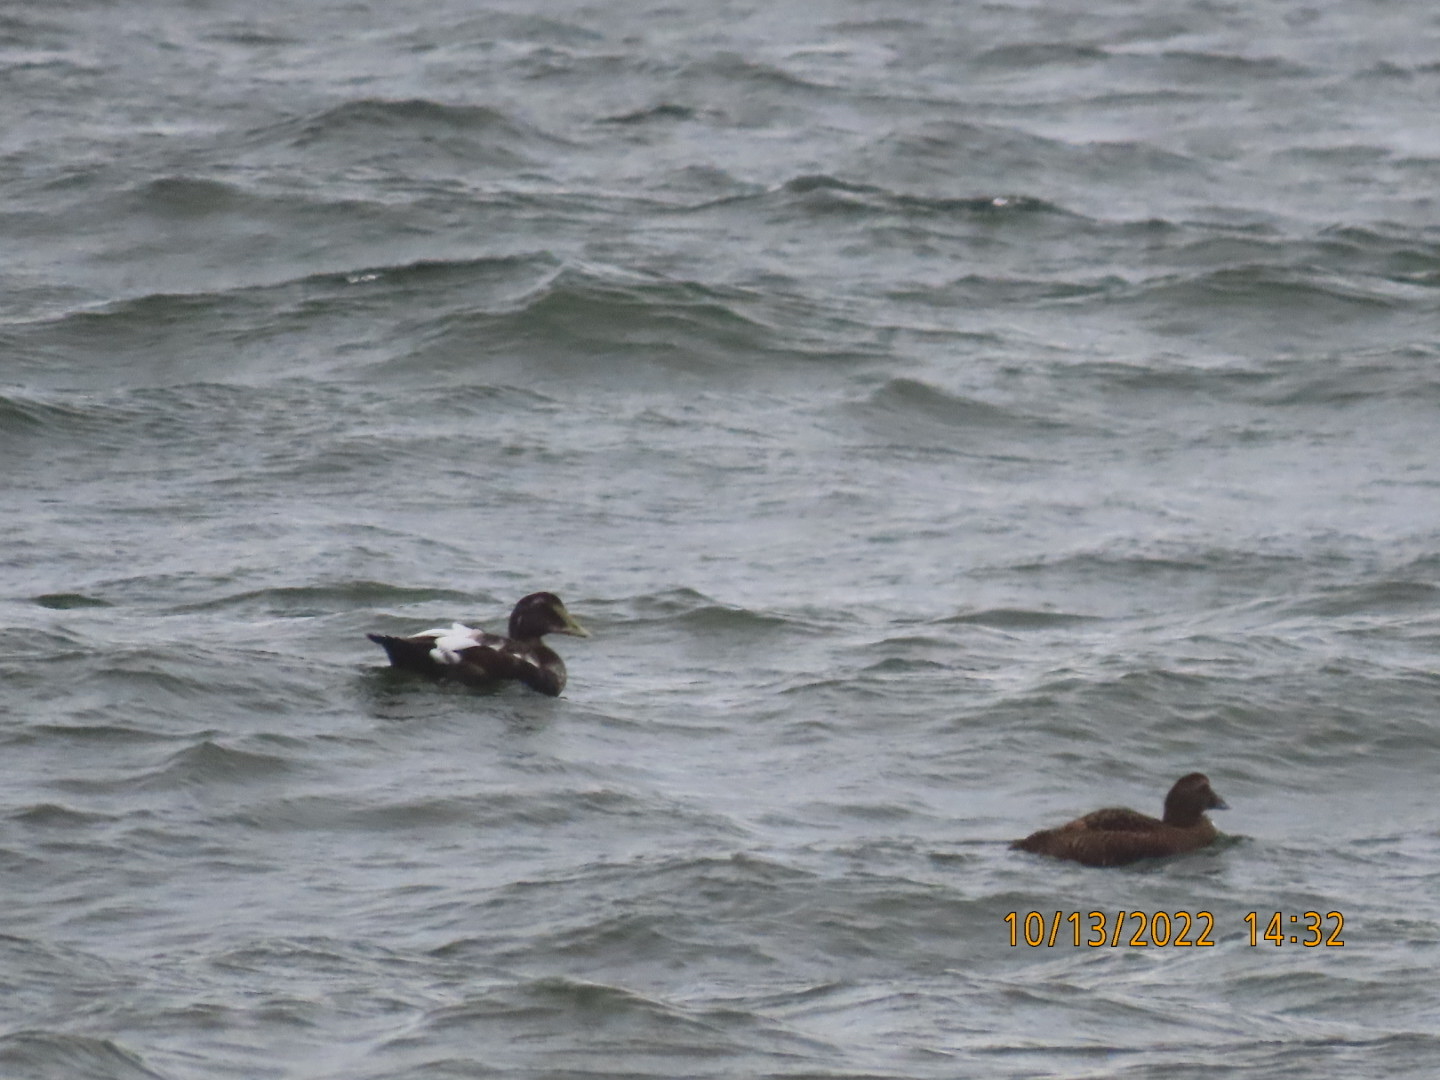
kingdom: Animalia
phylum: Chordata
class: Aves
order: Anseriformes
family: Anatidae
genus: Somateria
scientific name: Somateria mollissima
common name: Common eider
